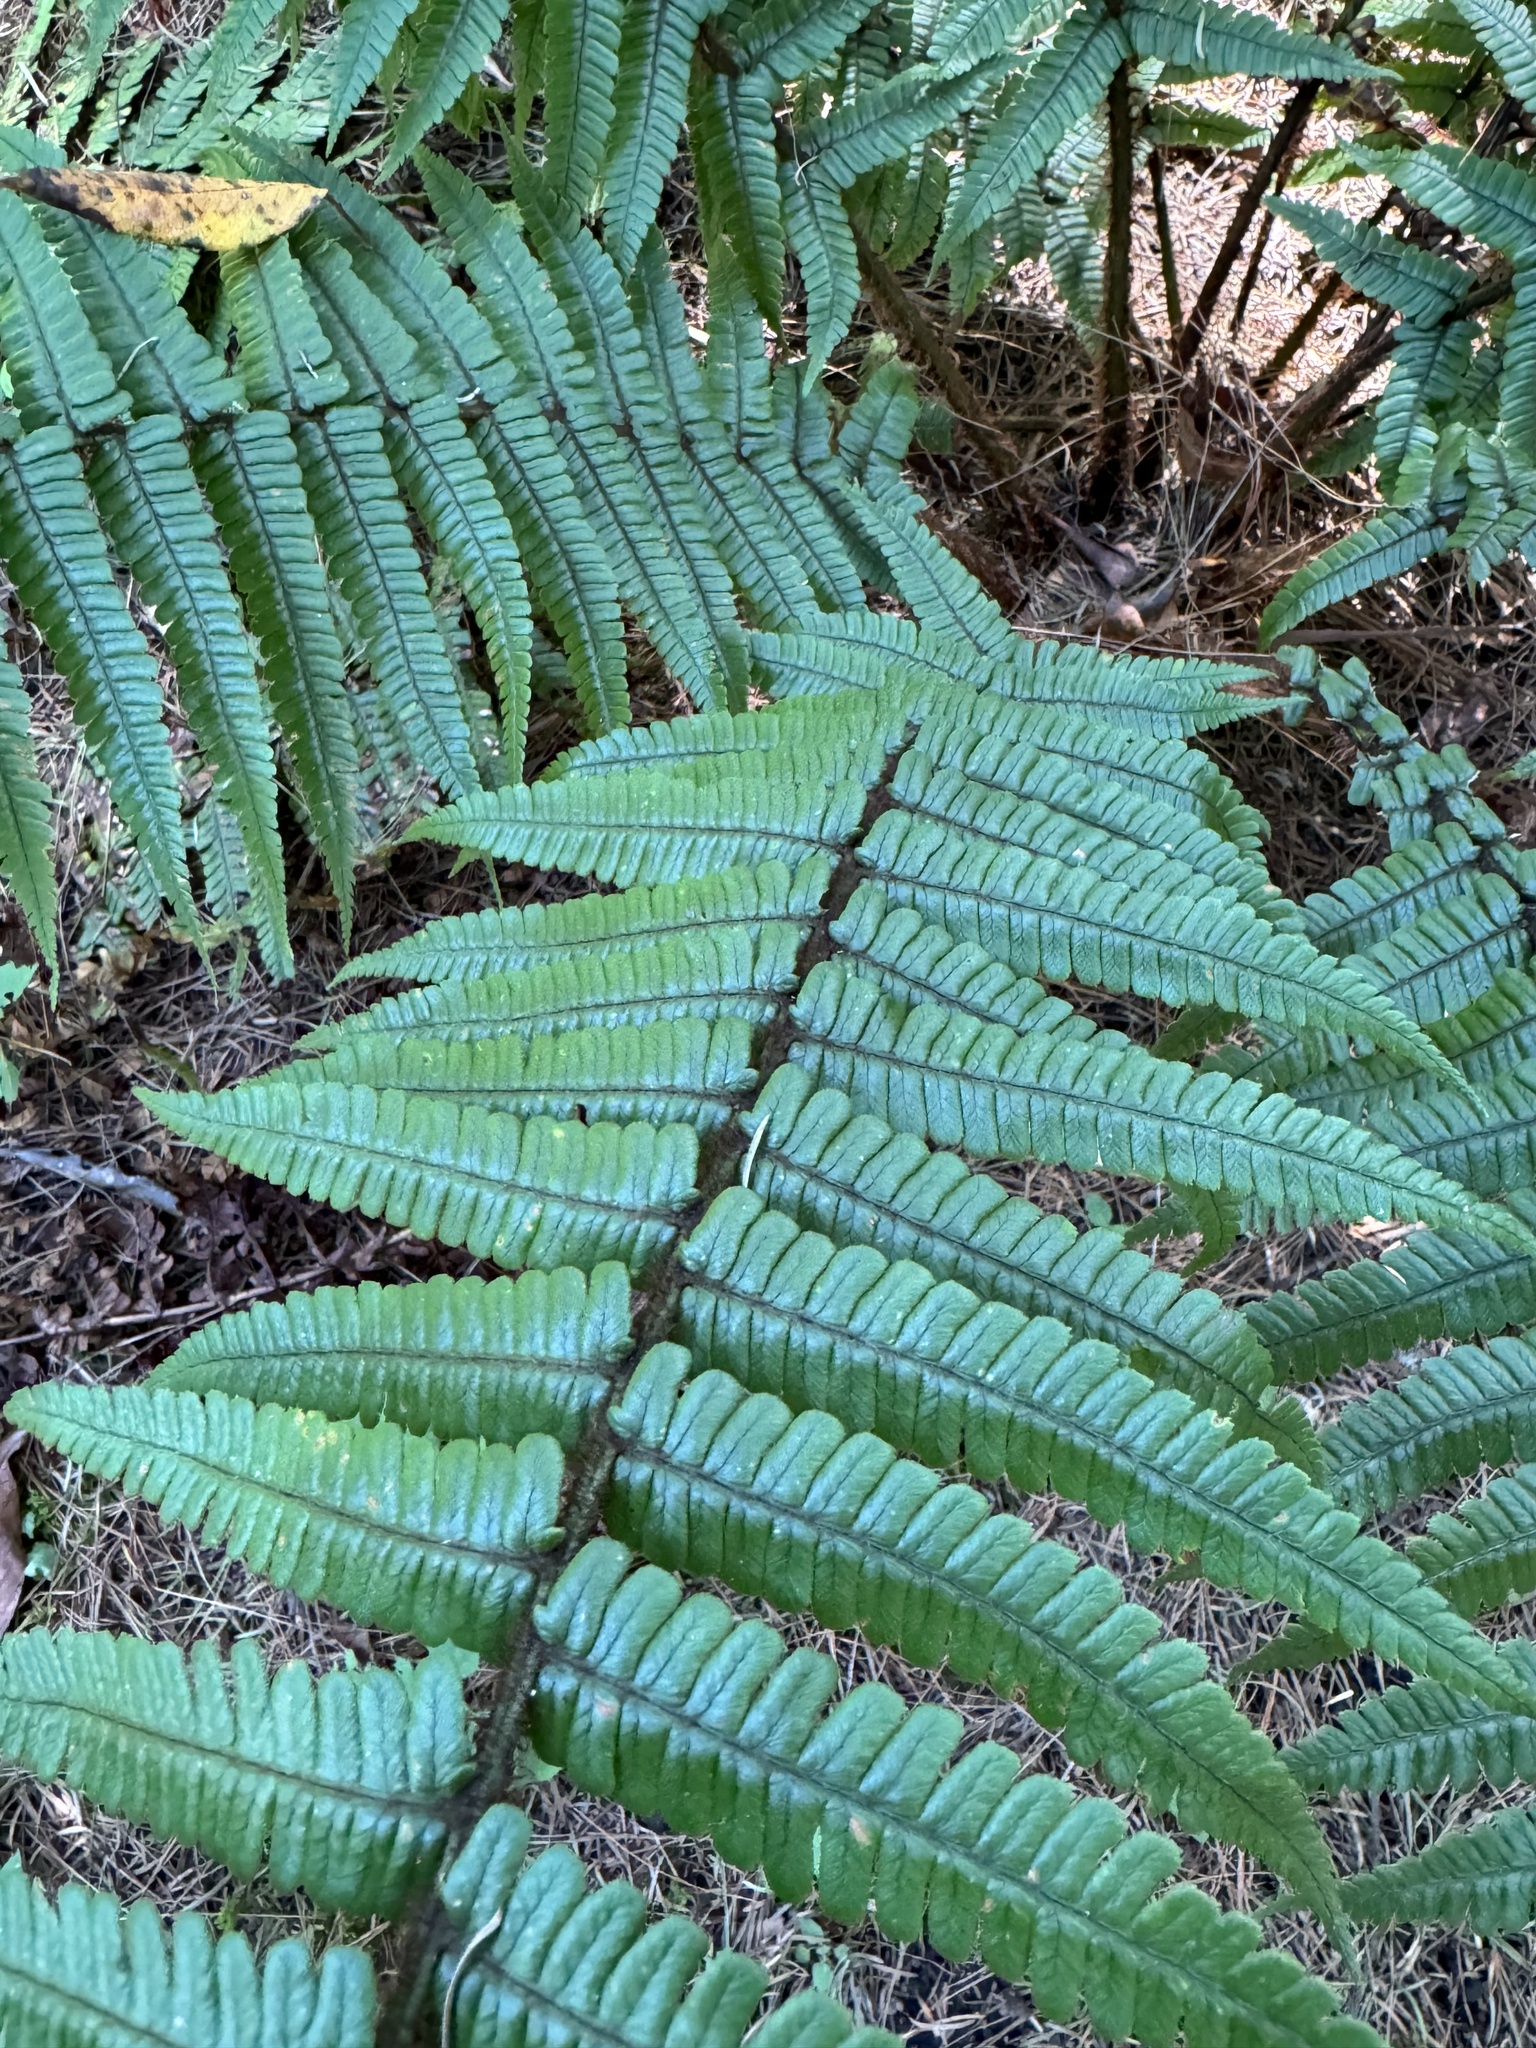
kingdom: Plantae
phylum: Tracheophyta
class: Polypodiopsida
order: Polypodiales
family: Dryopteridaceae
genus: Dryopteris
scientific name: Dryopteris wallichiana
